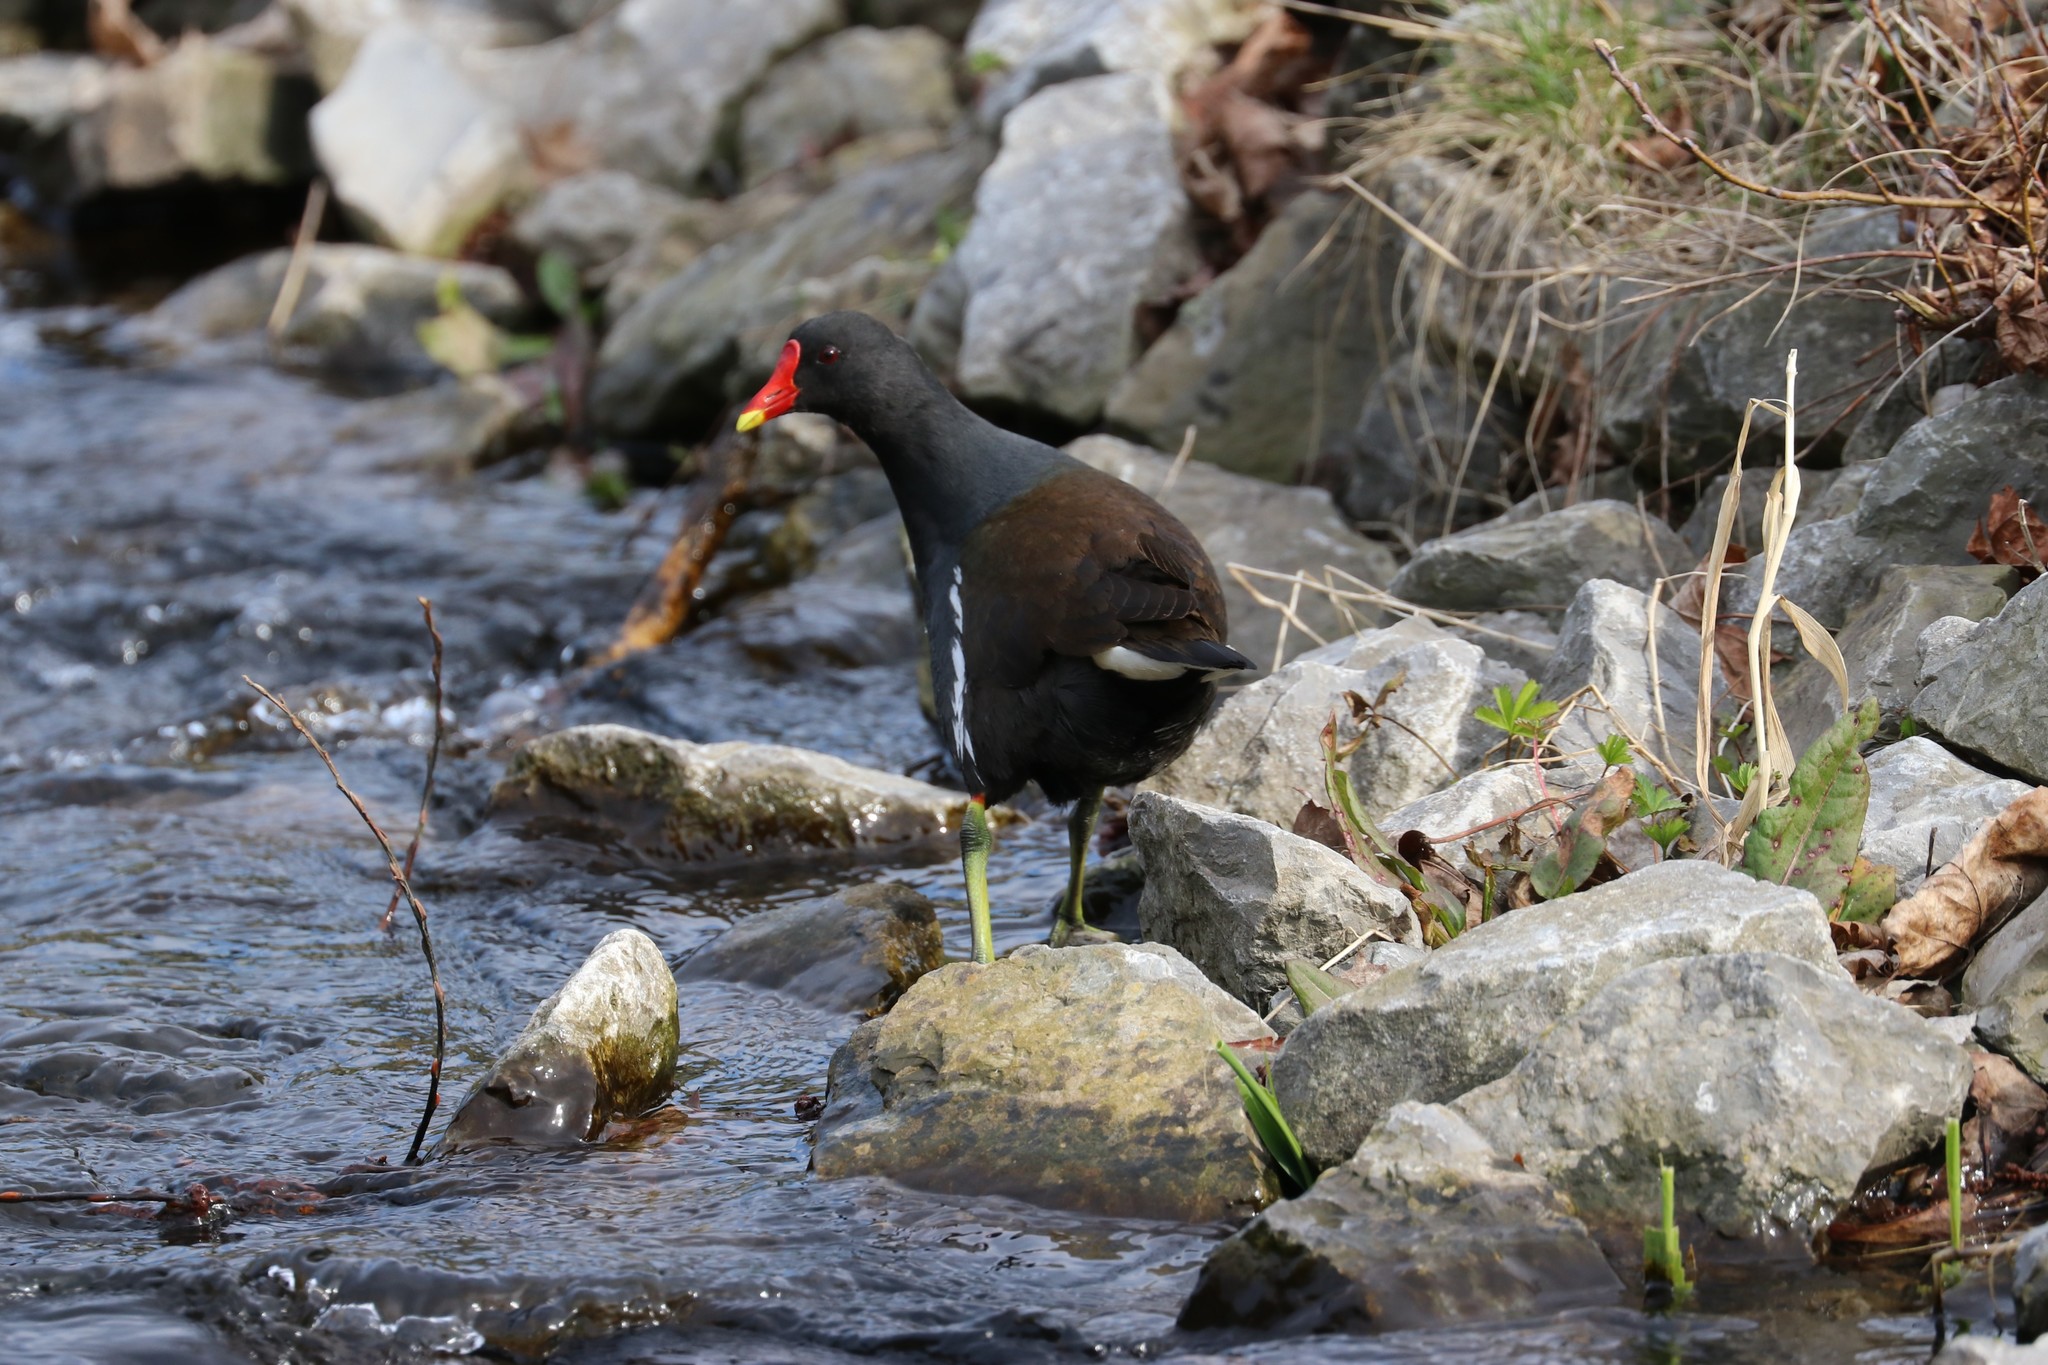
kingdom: Animalia
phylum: Chordata
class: Aves
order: Gruiformes
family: Rallidae
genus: Gallinula
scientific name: Gallinula chloropus
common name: Common moorhen
